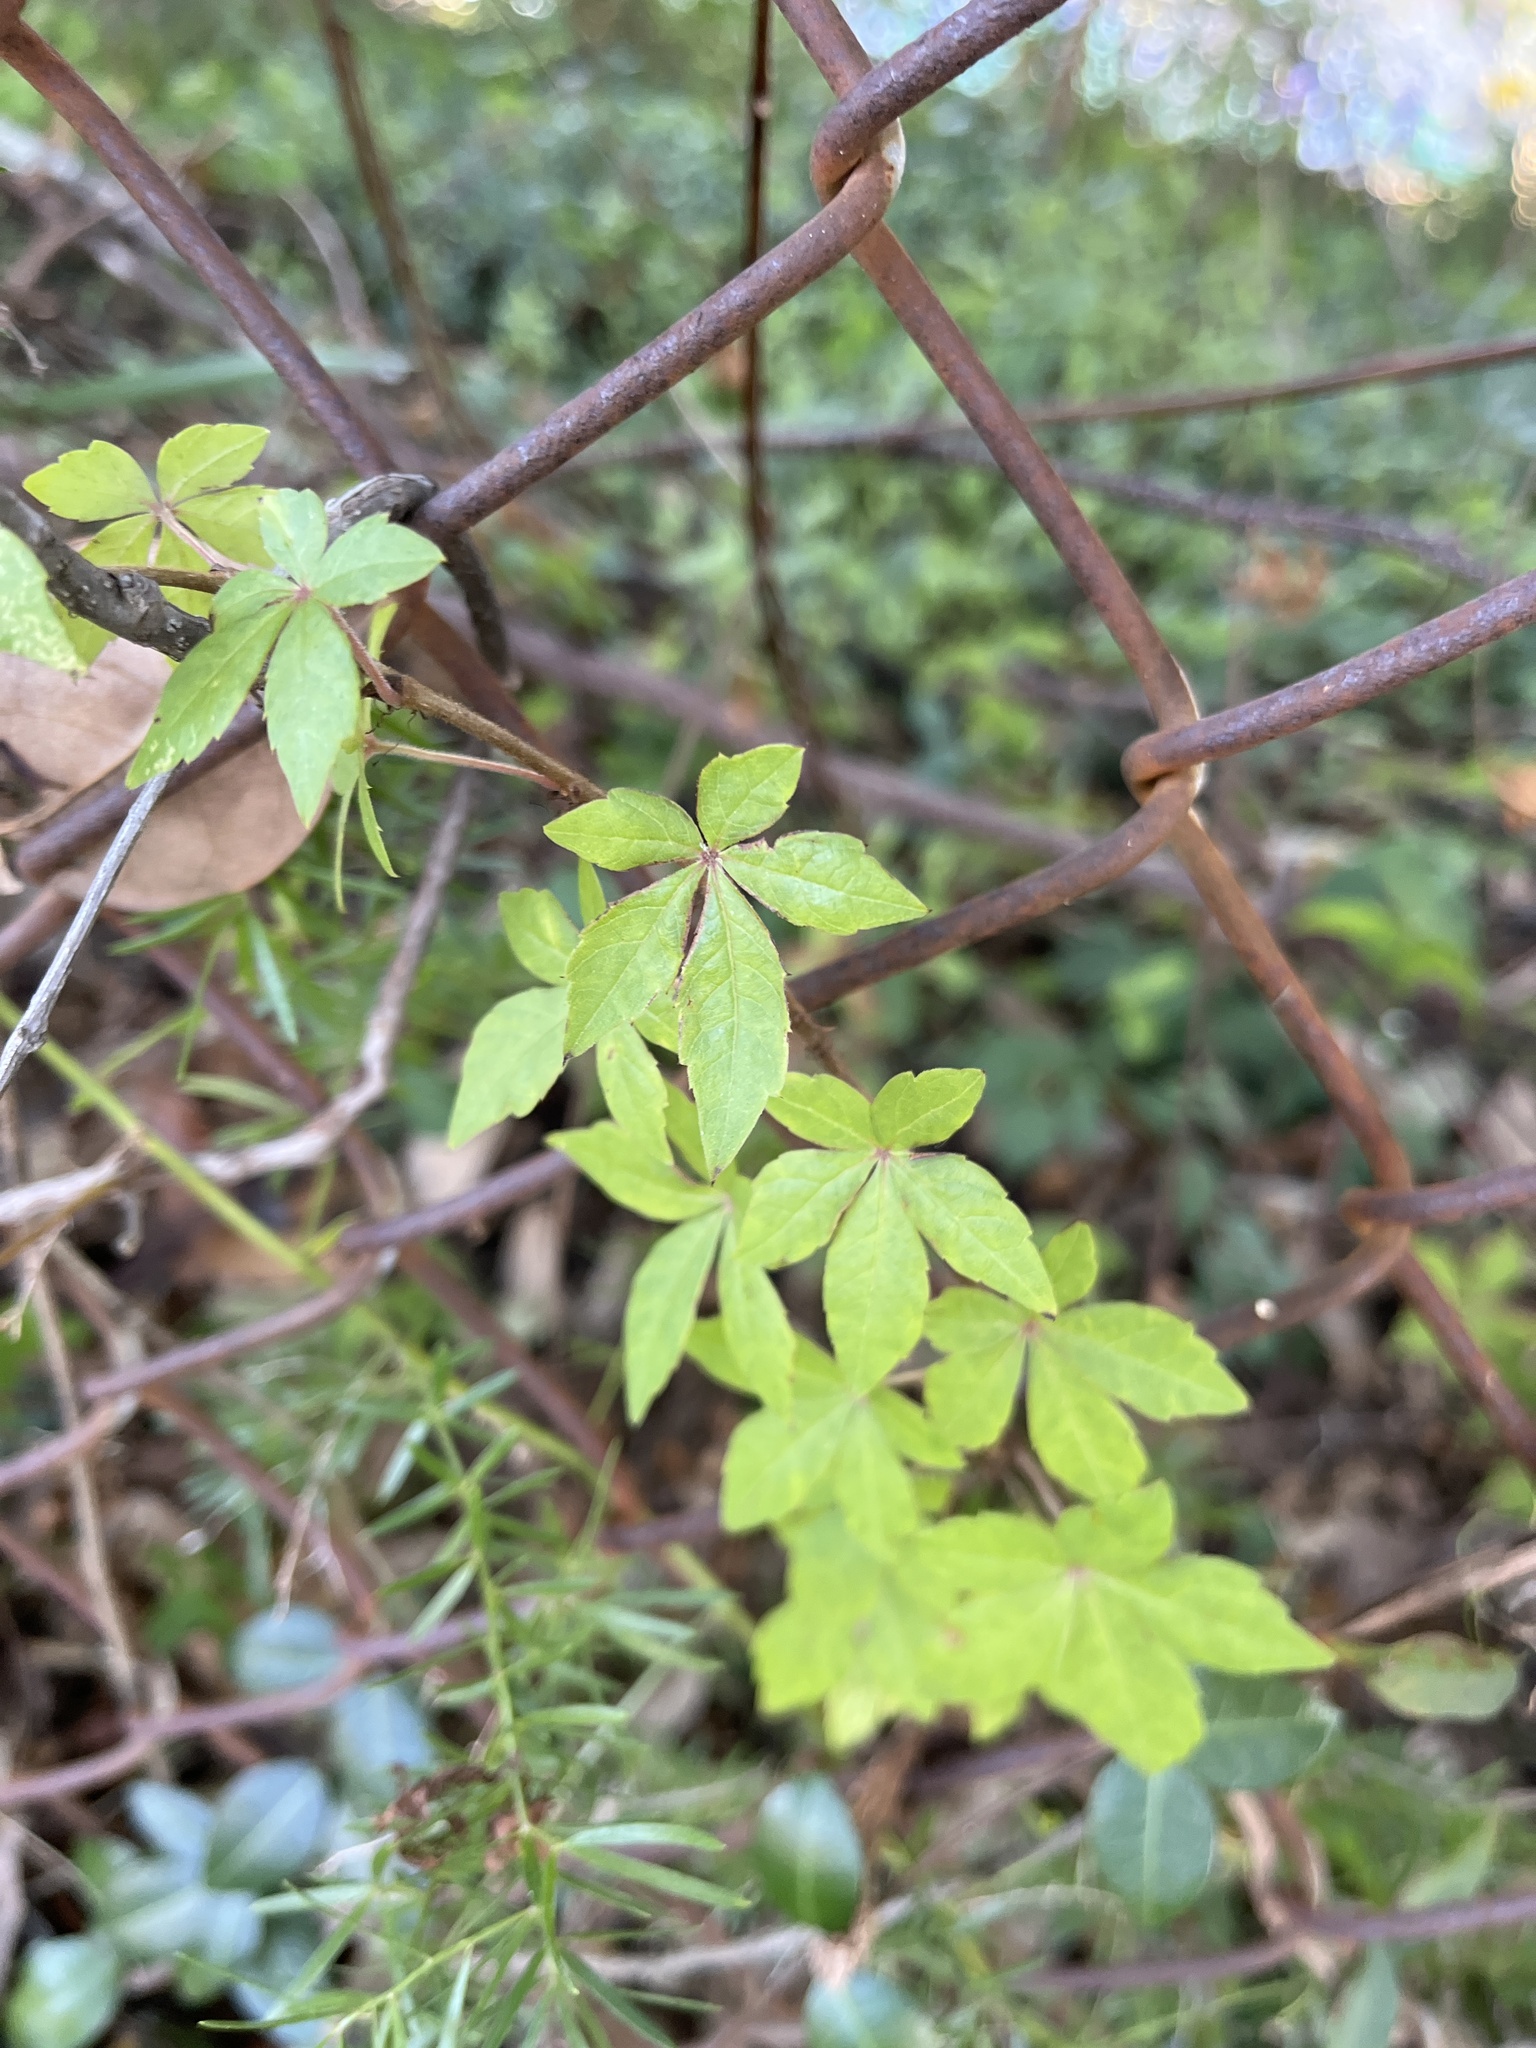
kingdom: Plantae
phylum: Tracheophyta
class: Magnoliopsida
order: Vitales
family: Vitaceae
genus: Parthenocissus
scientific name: Parthenocissus quinquefolia
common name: Virginia-creeper
